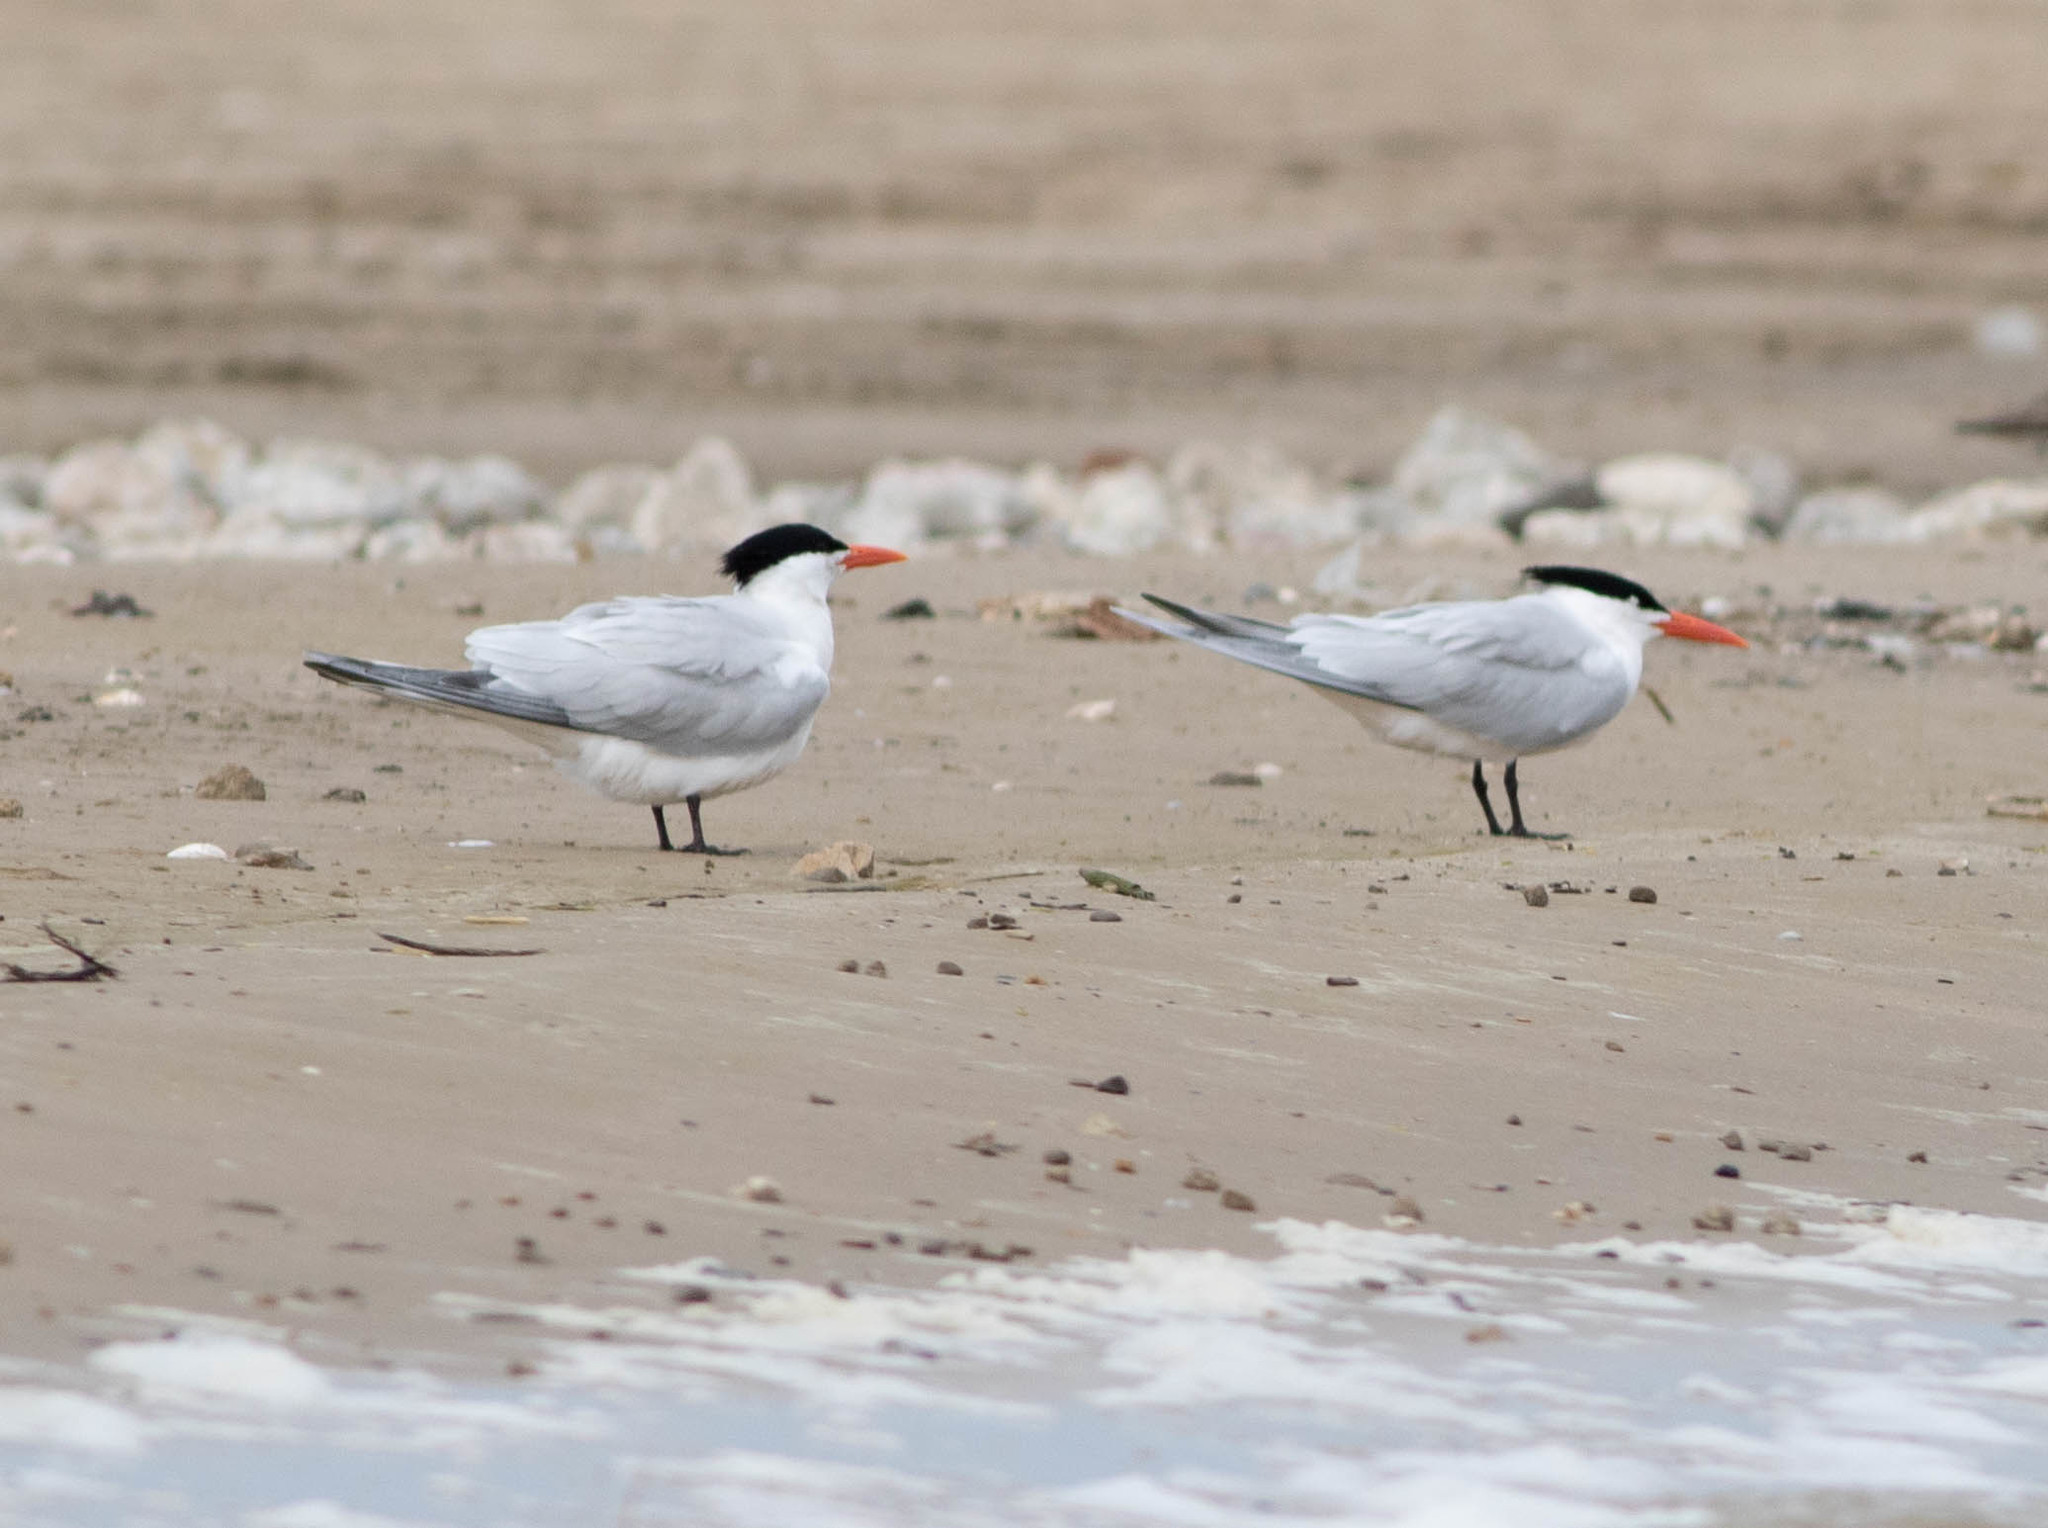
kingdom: Animalia
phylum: Chordata
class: Aves
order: Charadriiformes
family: Laridae
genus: Thalasseus
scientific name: Thalasseus maximus
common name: Royal tern
